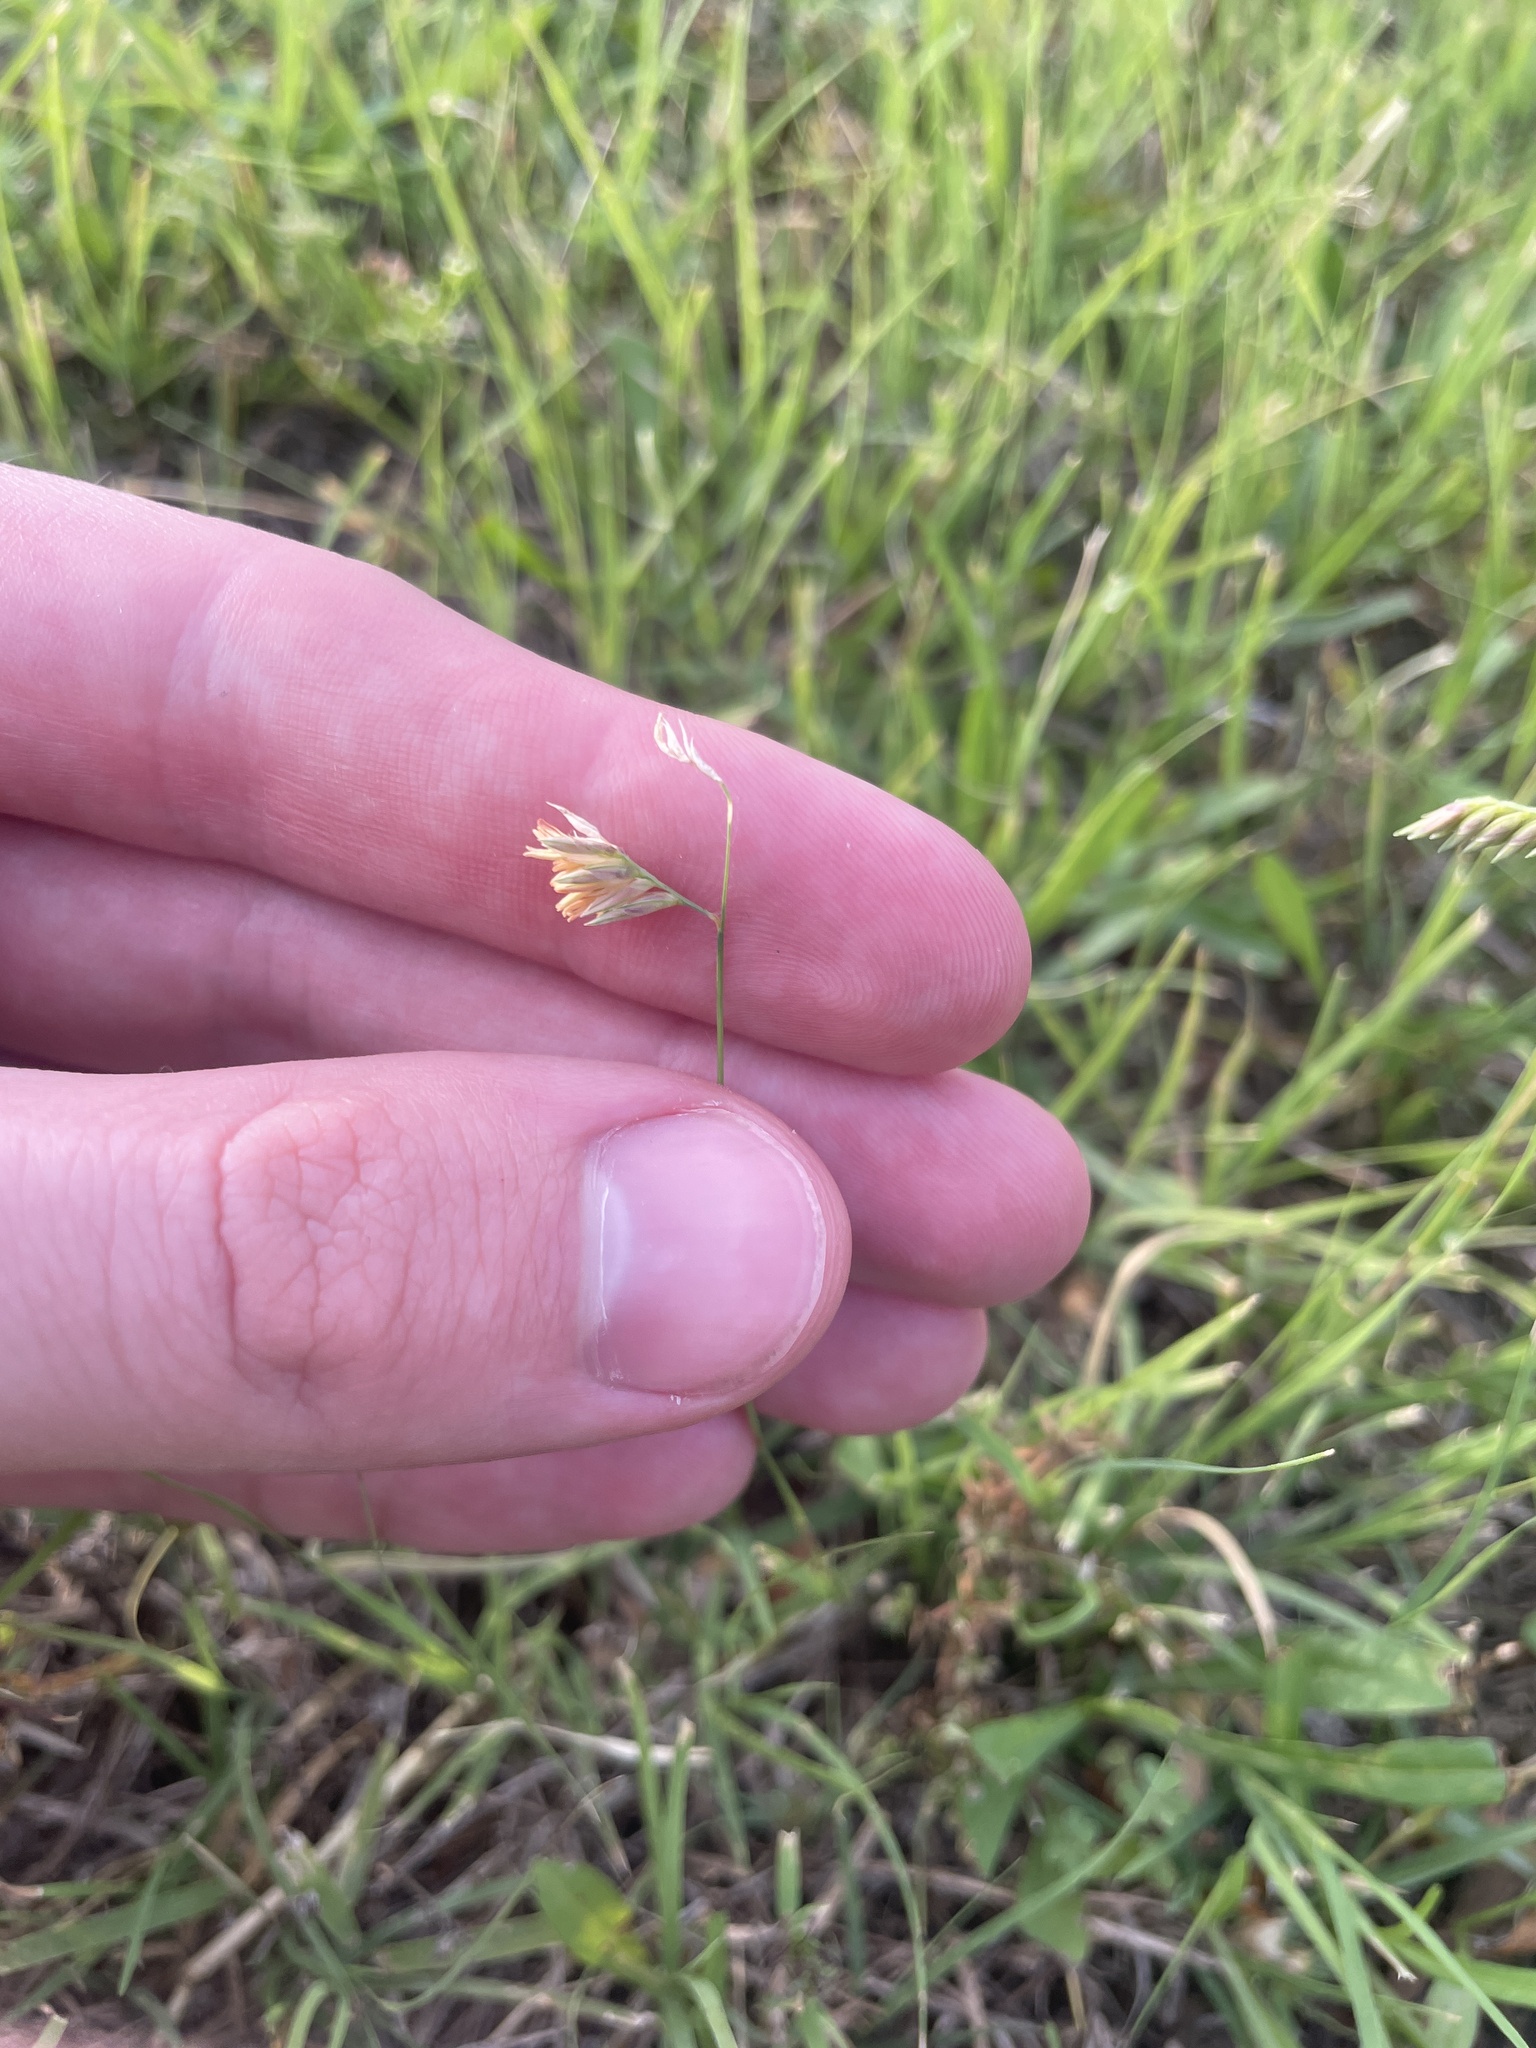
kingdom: Plantae
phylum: Tracheophyta
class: Liliopsida
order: Poales
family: Poaceae
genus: Bouteloua
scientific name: Bouteloua dactyloides
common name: Buffalo grass
